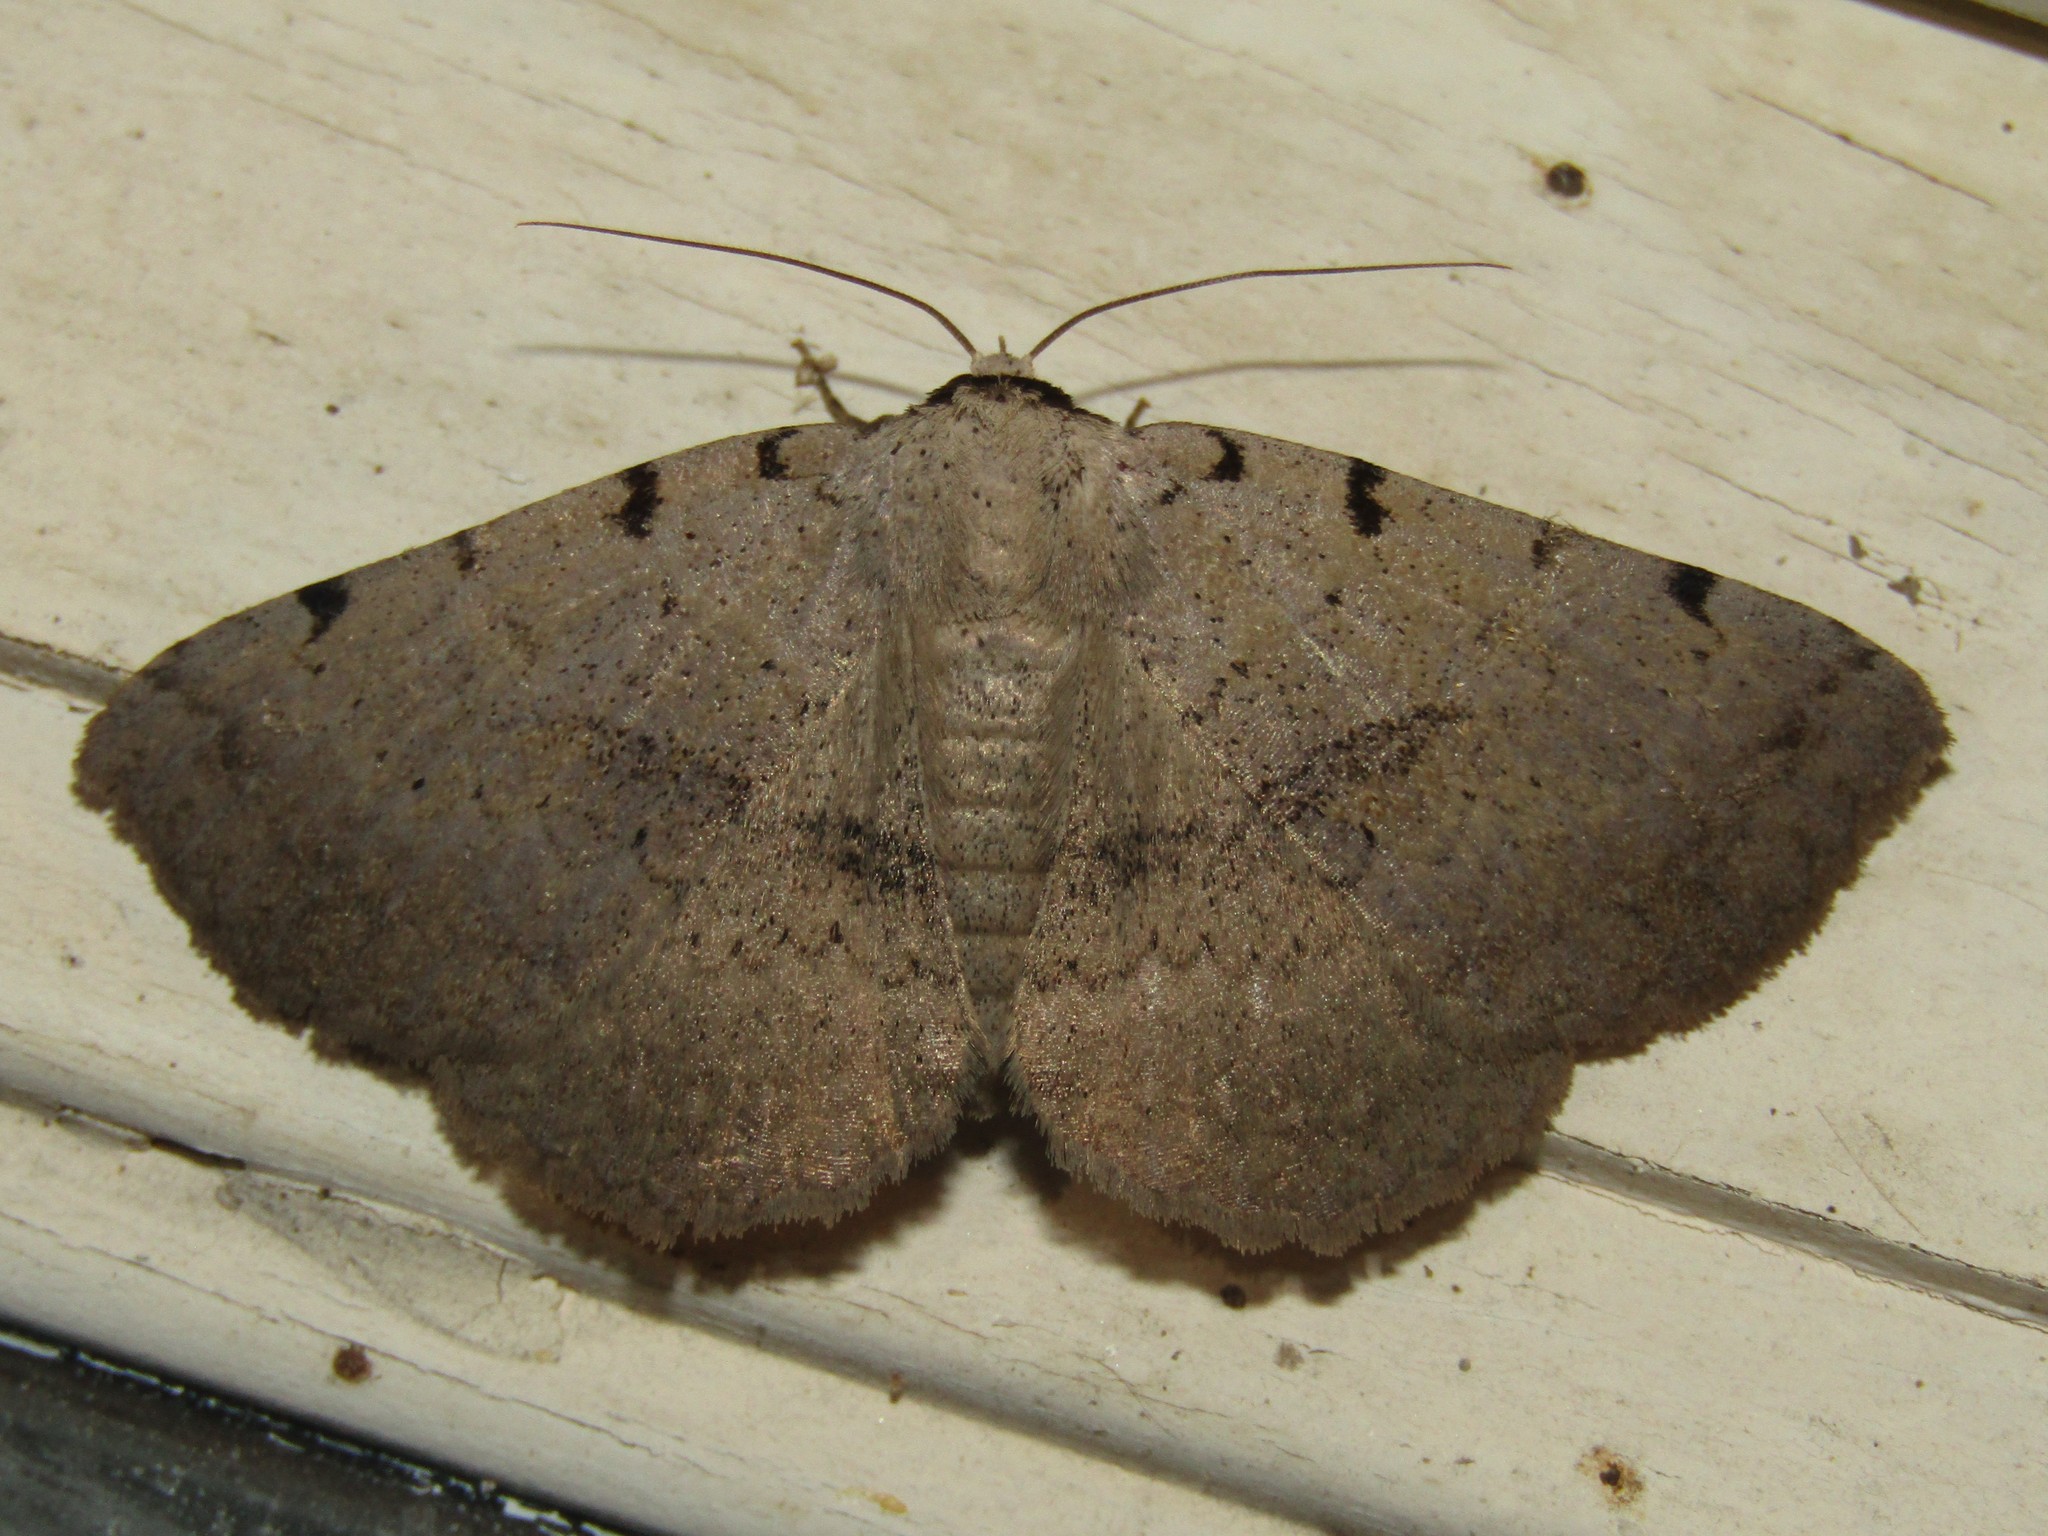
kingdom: Animalia
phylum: Arthropoda
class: Insecta
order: Lepidoptera
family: Erebidae
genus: Spiloloma
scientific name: Spiloloma lunilinea
